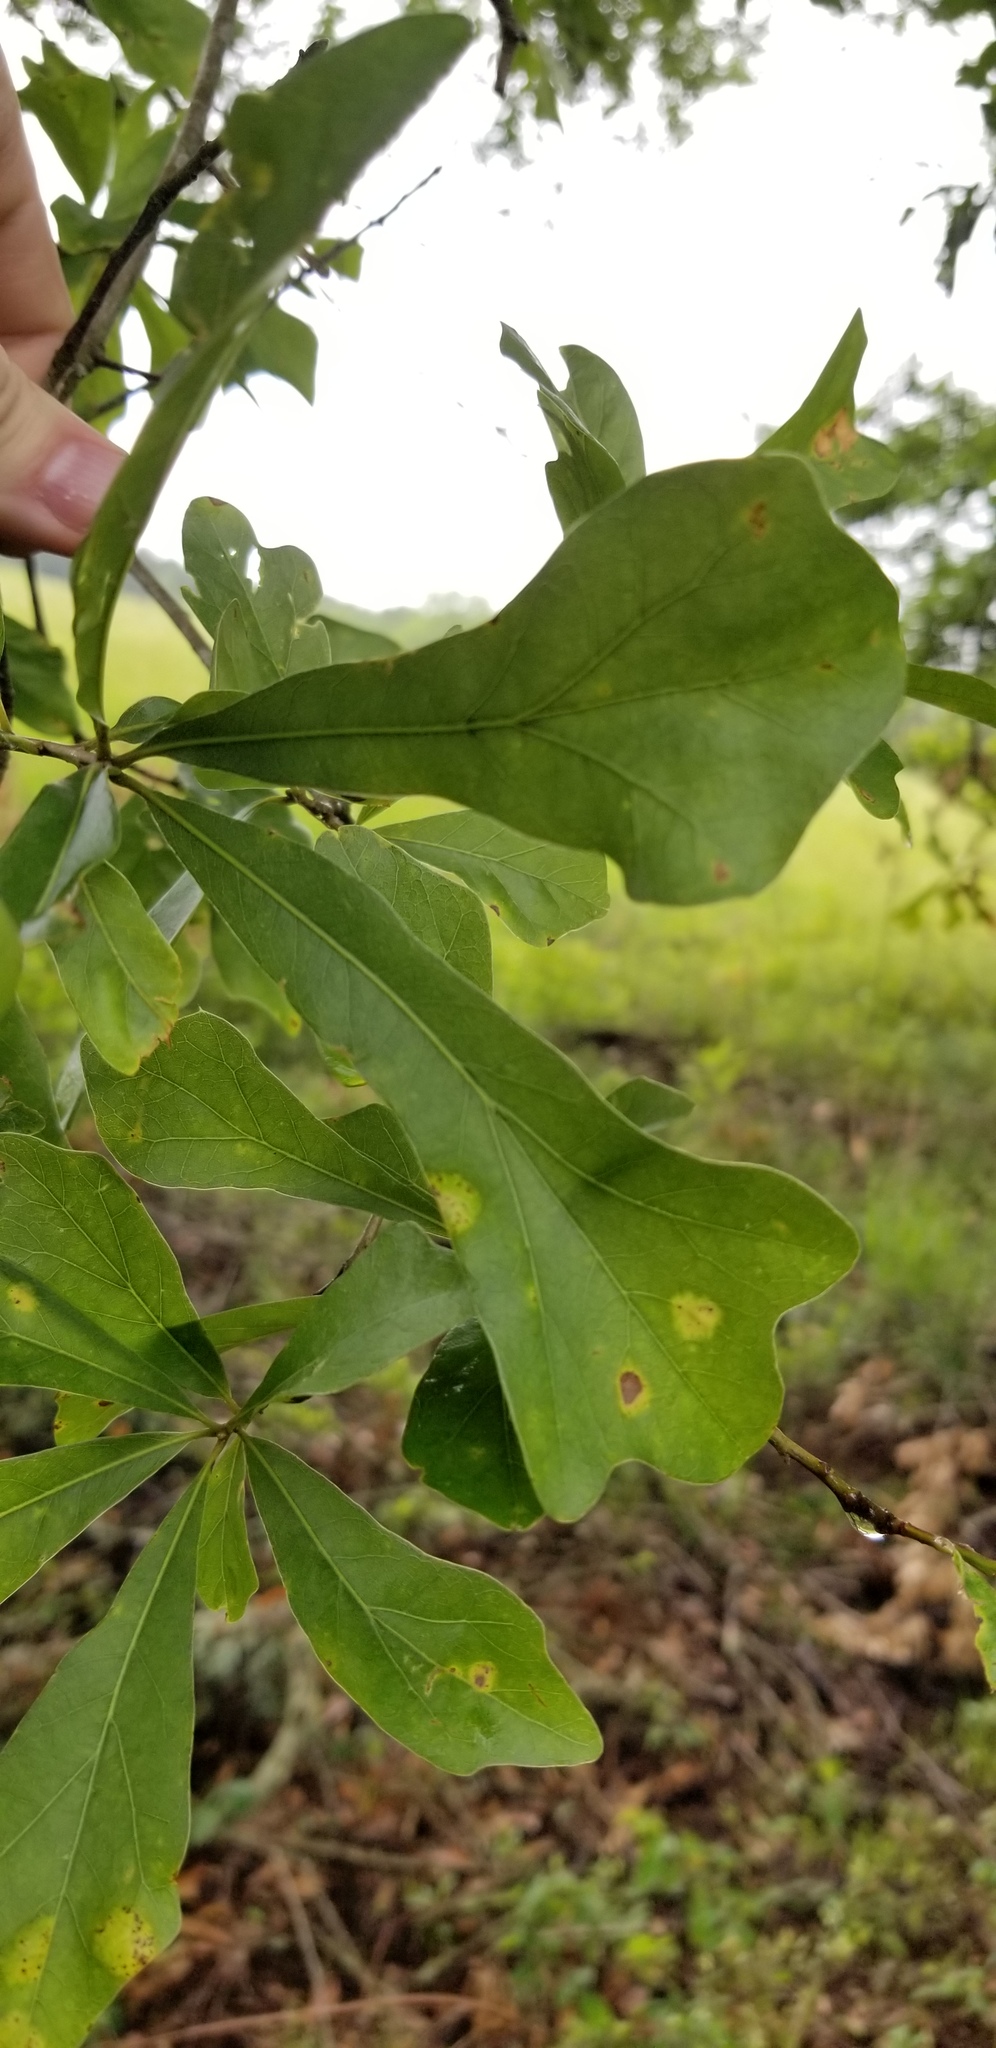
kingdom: Plantae
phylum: Tracheophyta
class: Magnoliopsida
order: Fagales
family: Fagaceae
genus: Quercus
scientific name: Quercus nigra
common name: Water oak
